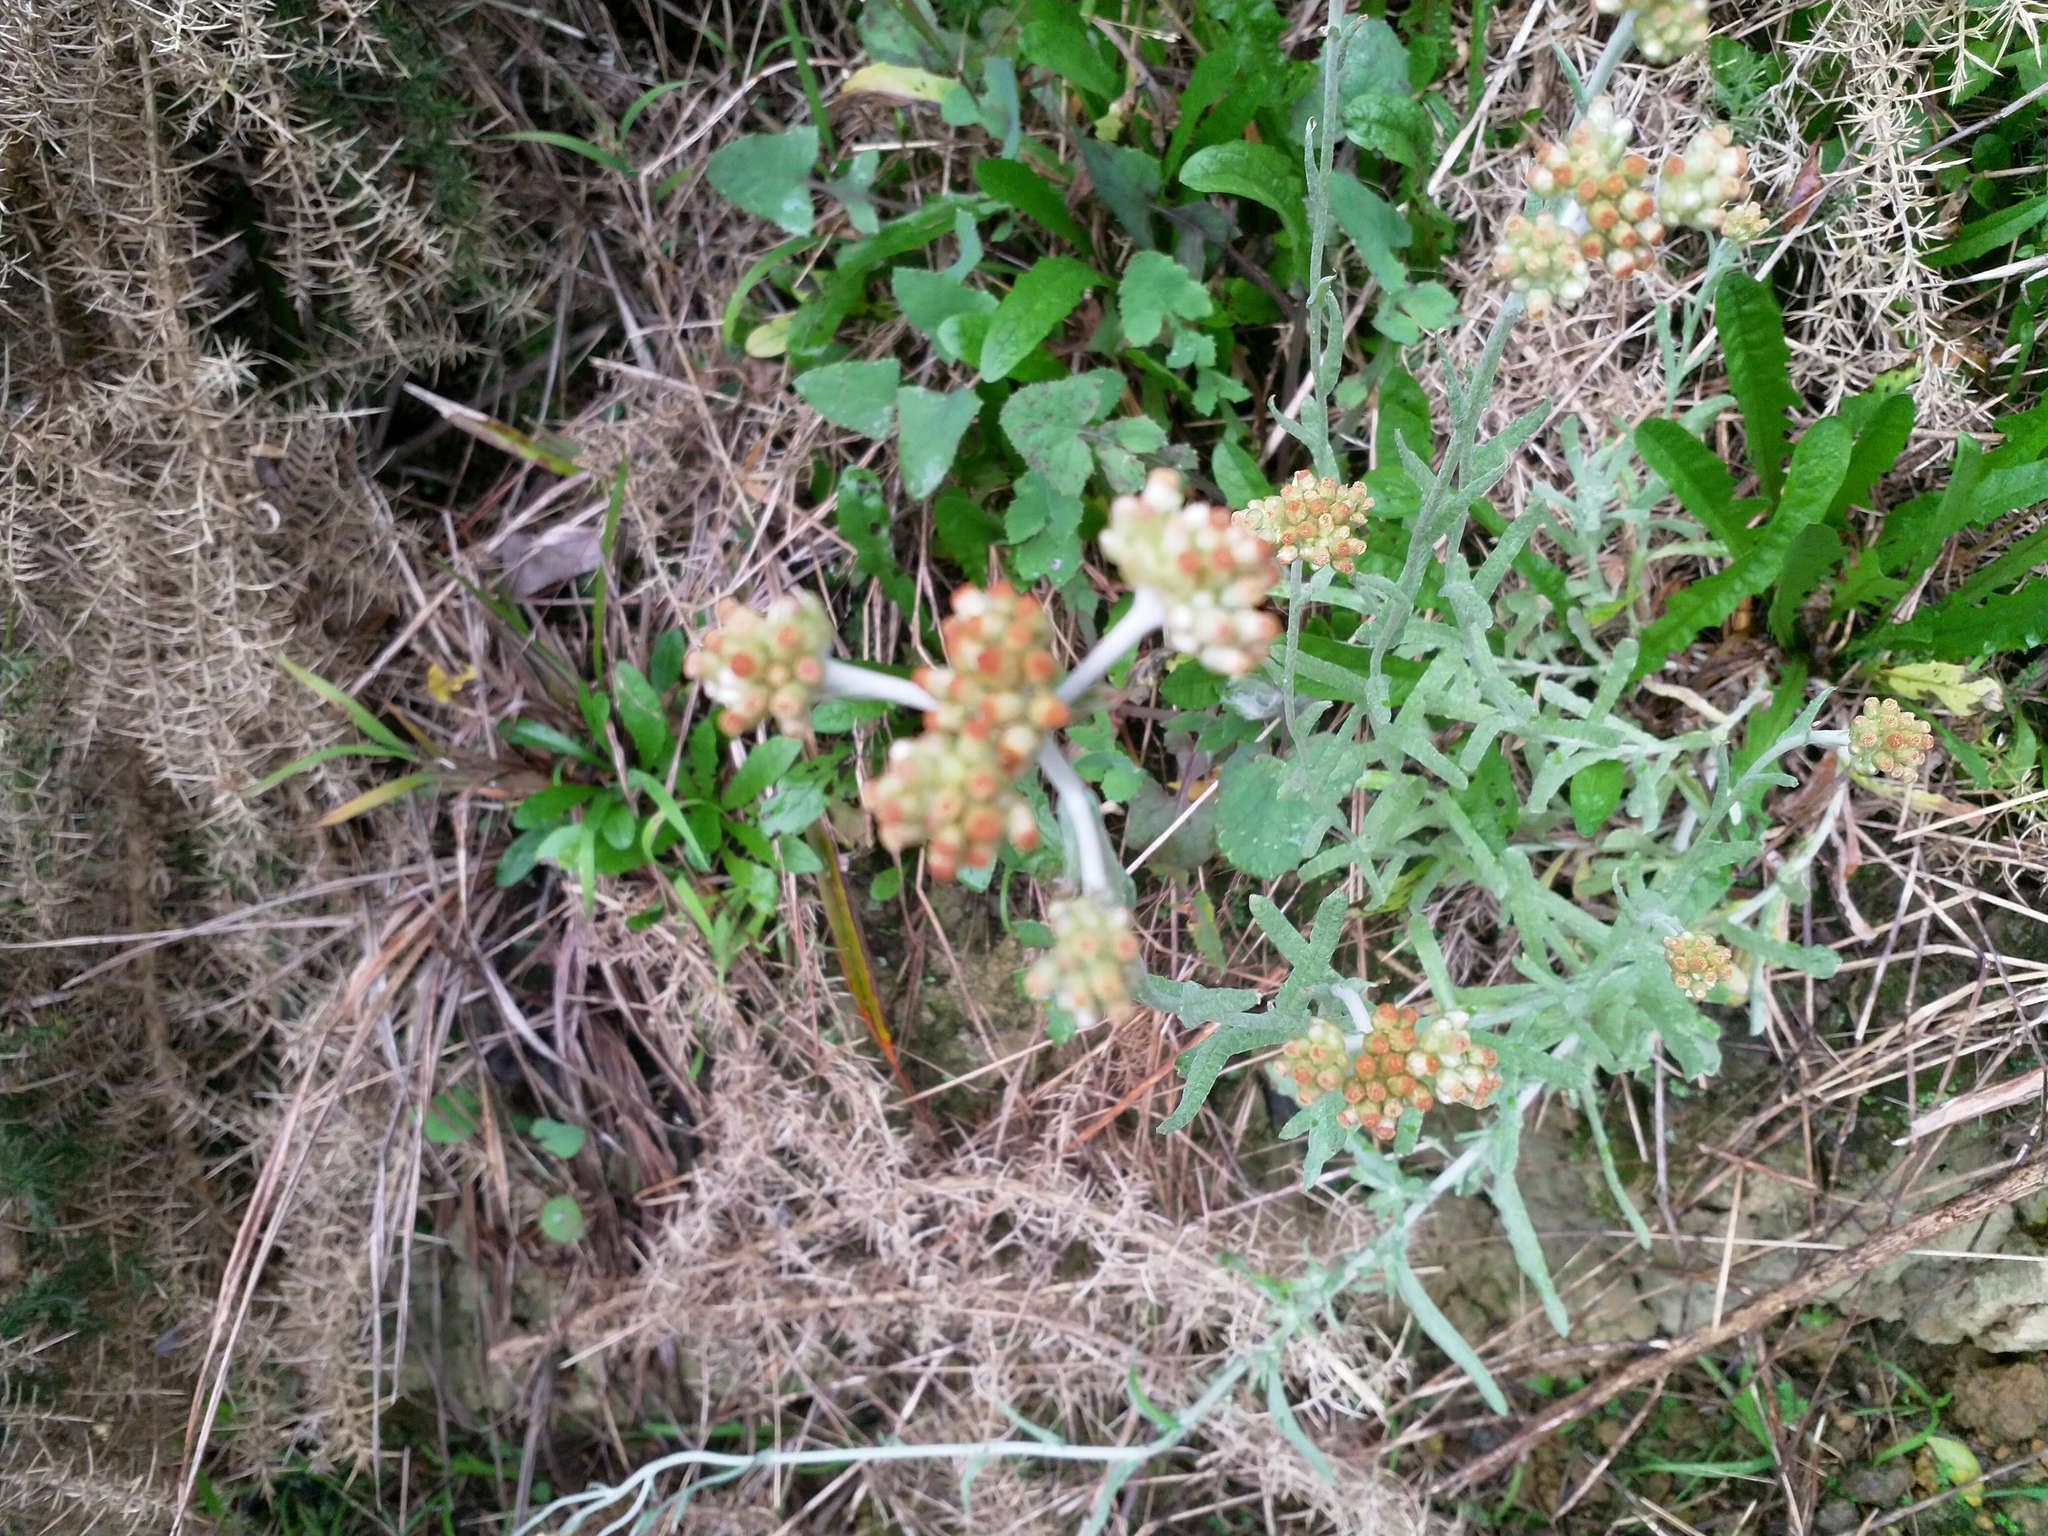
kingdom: Plantae
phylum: Tracheophyta
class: Magnoliopsida
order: Asterales
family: Asteraceae
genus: Helichrysum
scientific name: Helichrysum luteoalbum
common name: Daisy
